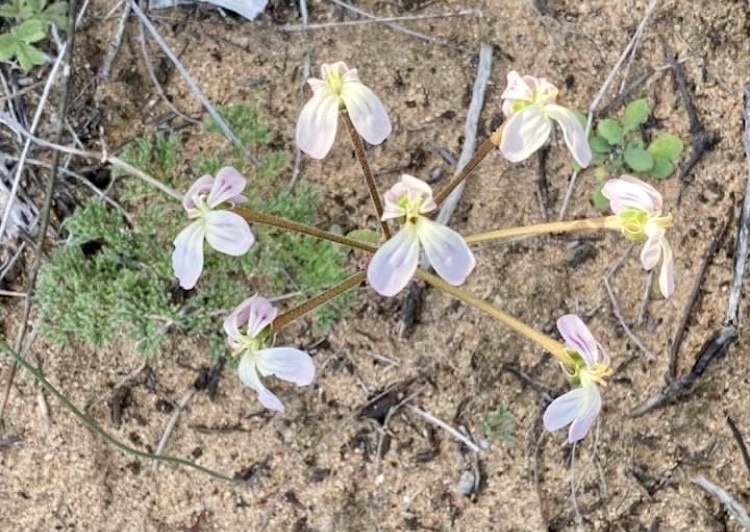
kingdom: Plantae
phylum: Tracheophyta
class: Magnoliopsida
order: Geraniales
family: Geraniaceae
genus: Pelargonium
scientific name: Pelargonium triste
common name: Night-scent pelargonium
